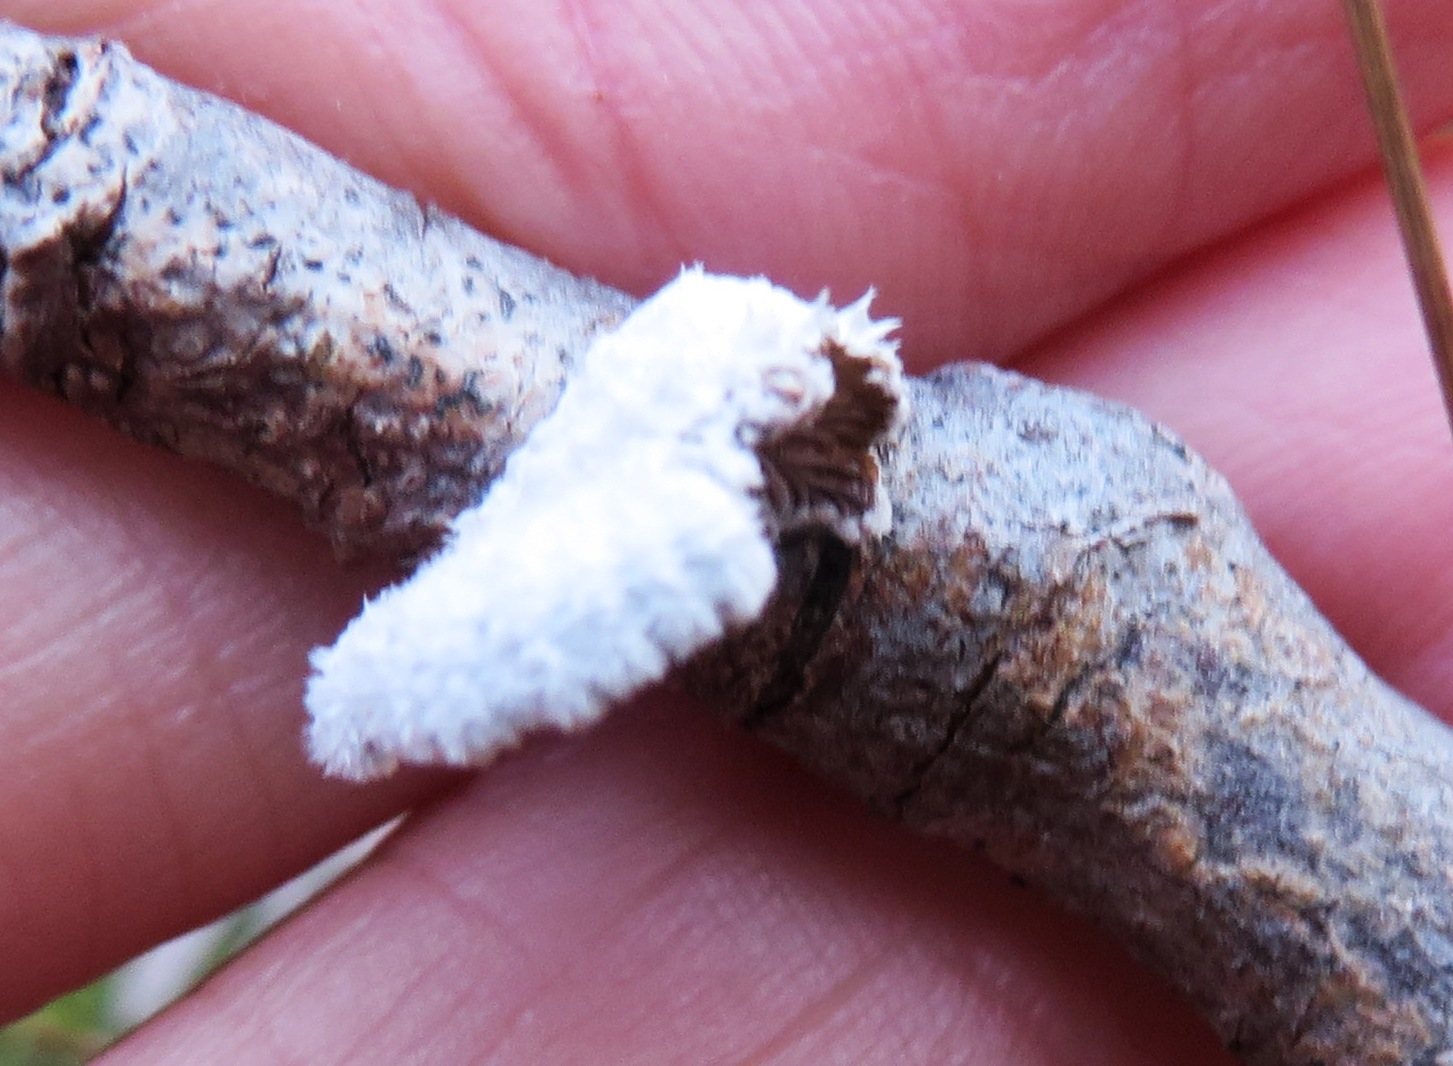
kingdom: Fungi
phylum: Basidiomycota
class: Agaricomycetes
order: Agaricales
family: Schizophyllaceae
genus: Schizophyllum
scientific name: Schizophyllum commune
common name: Common porecrust
